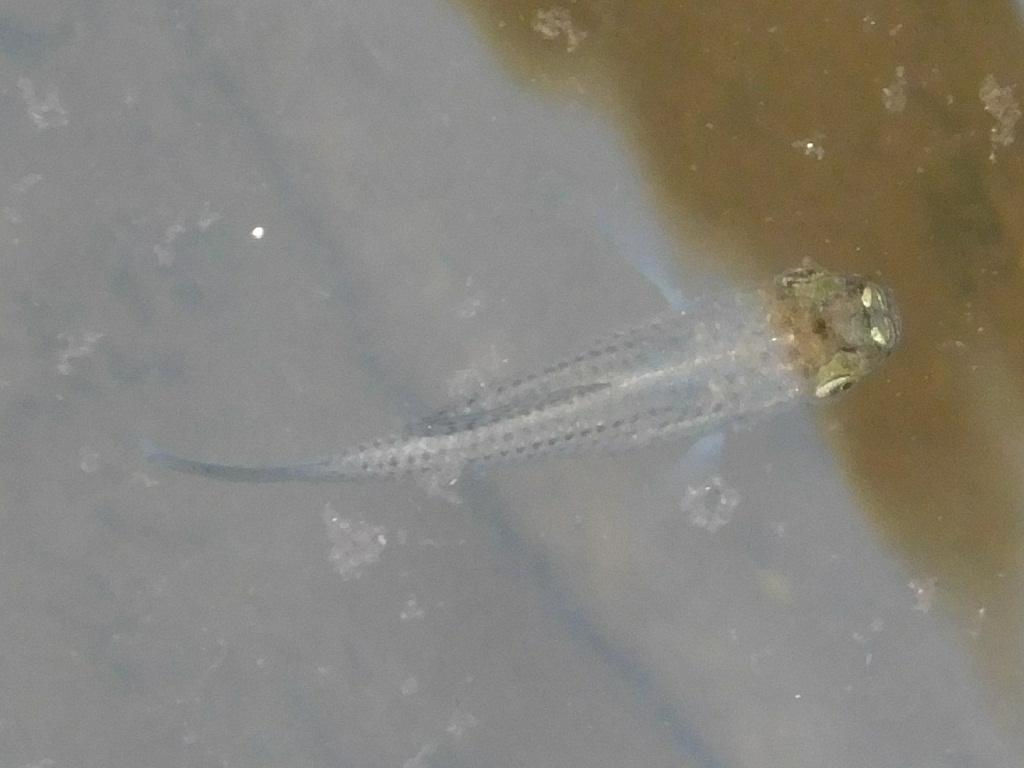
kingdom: Animalia
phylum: Chordata
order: Cyprinodontiformes
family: Poeciliidae
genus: Poecilia
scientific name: Poecilia latipinna
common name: Sailfin molly
